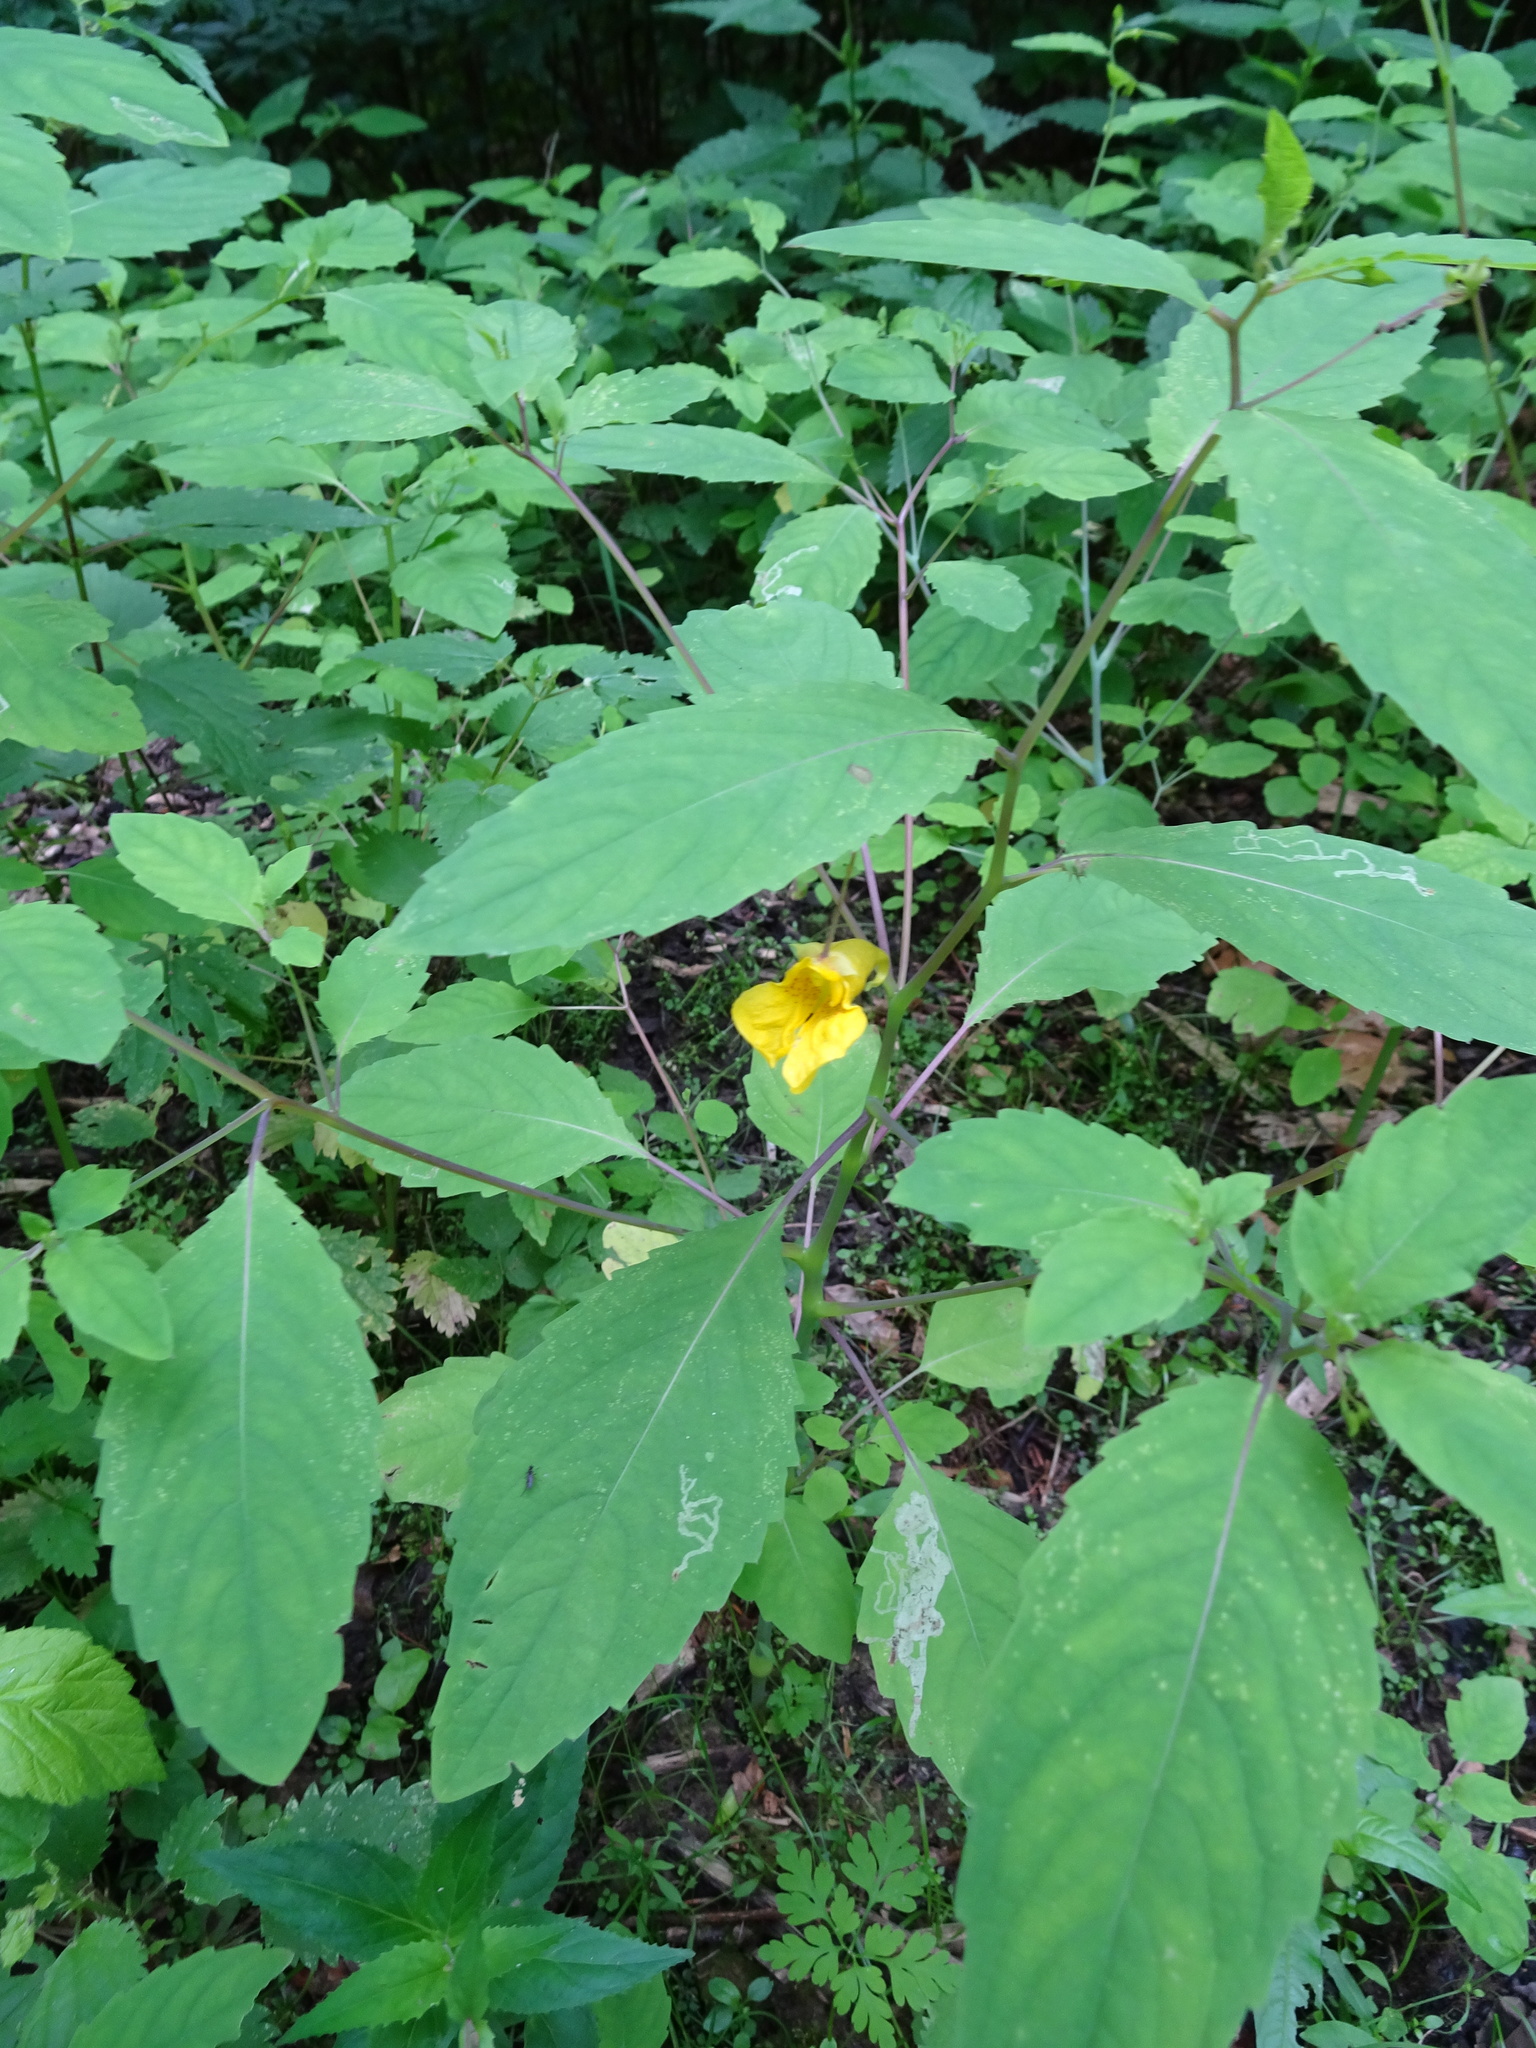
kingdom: Plantae
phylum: Tracheophyta
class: Magnoliopsida
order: Ericales
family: Balsaminaceae
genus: Impatiens
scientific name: Impatiens noli-tangere
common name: Touch-me-not balsam
